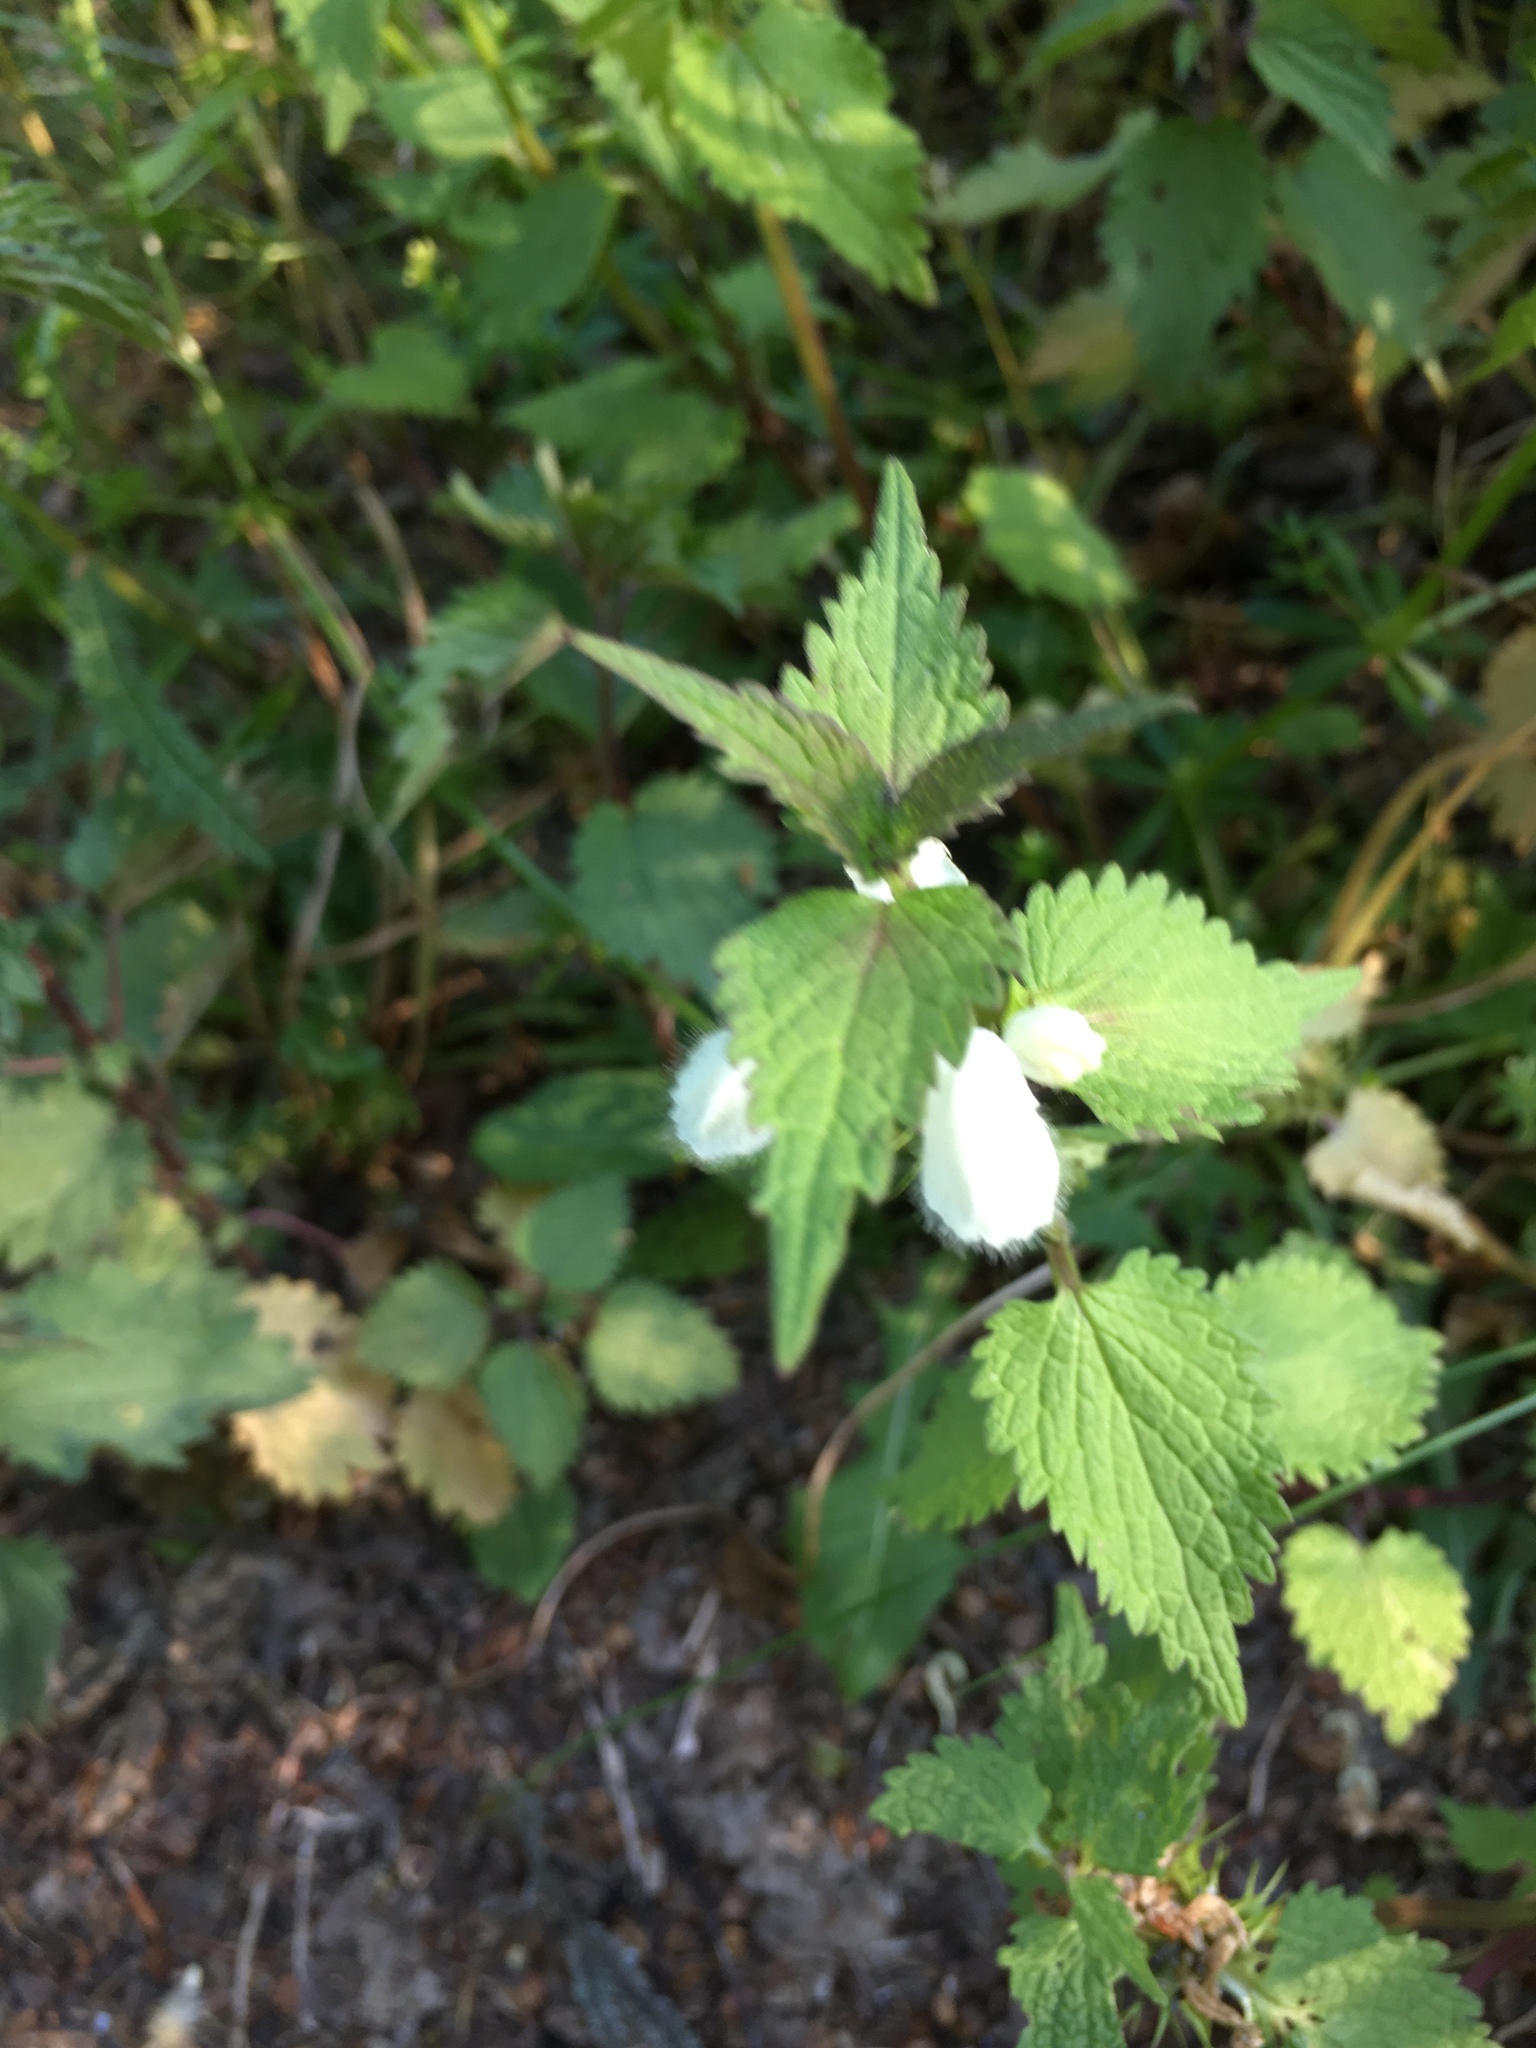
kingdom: Plantae
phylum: Tracheophyta
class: Magnoliopsida
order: Lamiales
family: Lamiaceae
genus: Lamium
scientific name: Lamium album
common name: White dead-nettle
